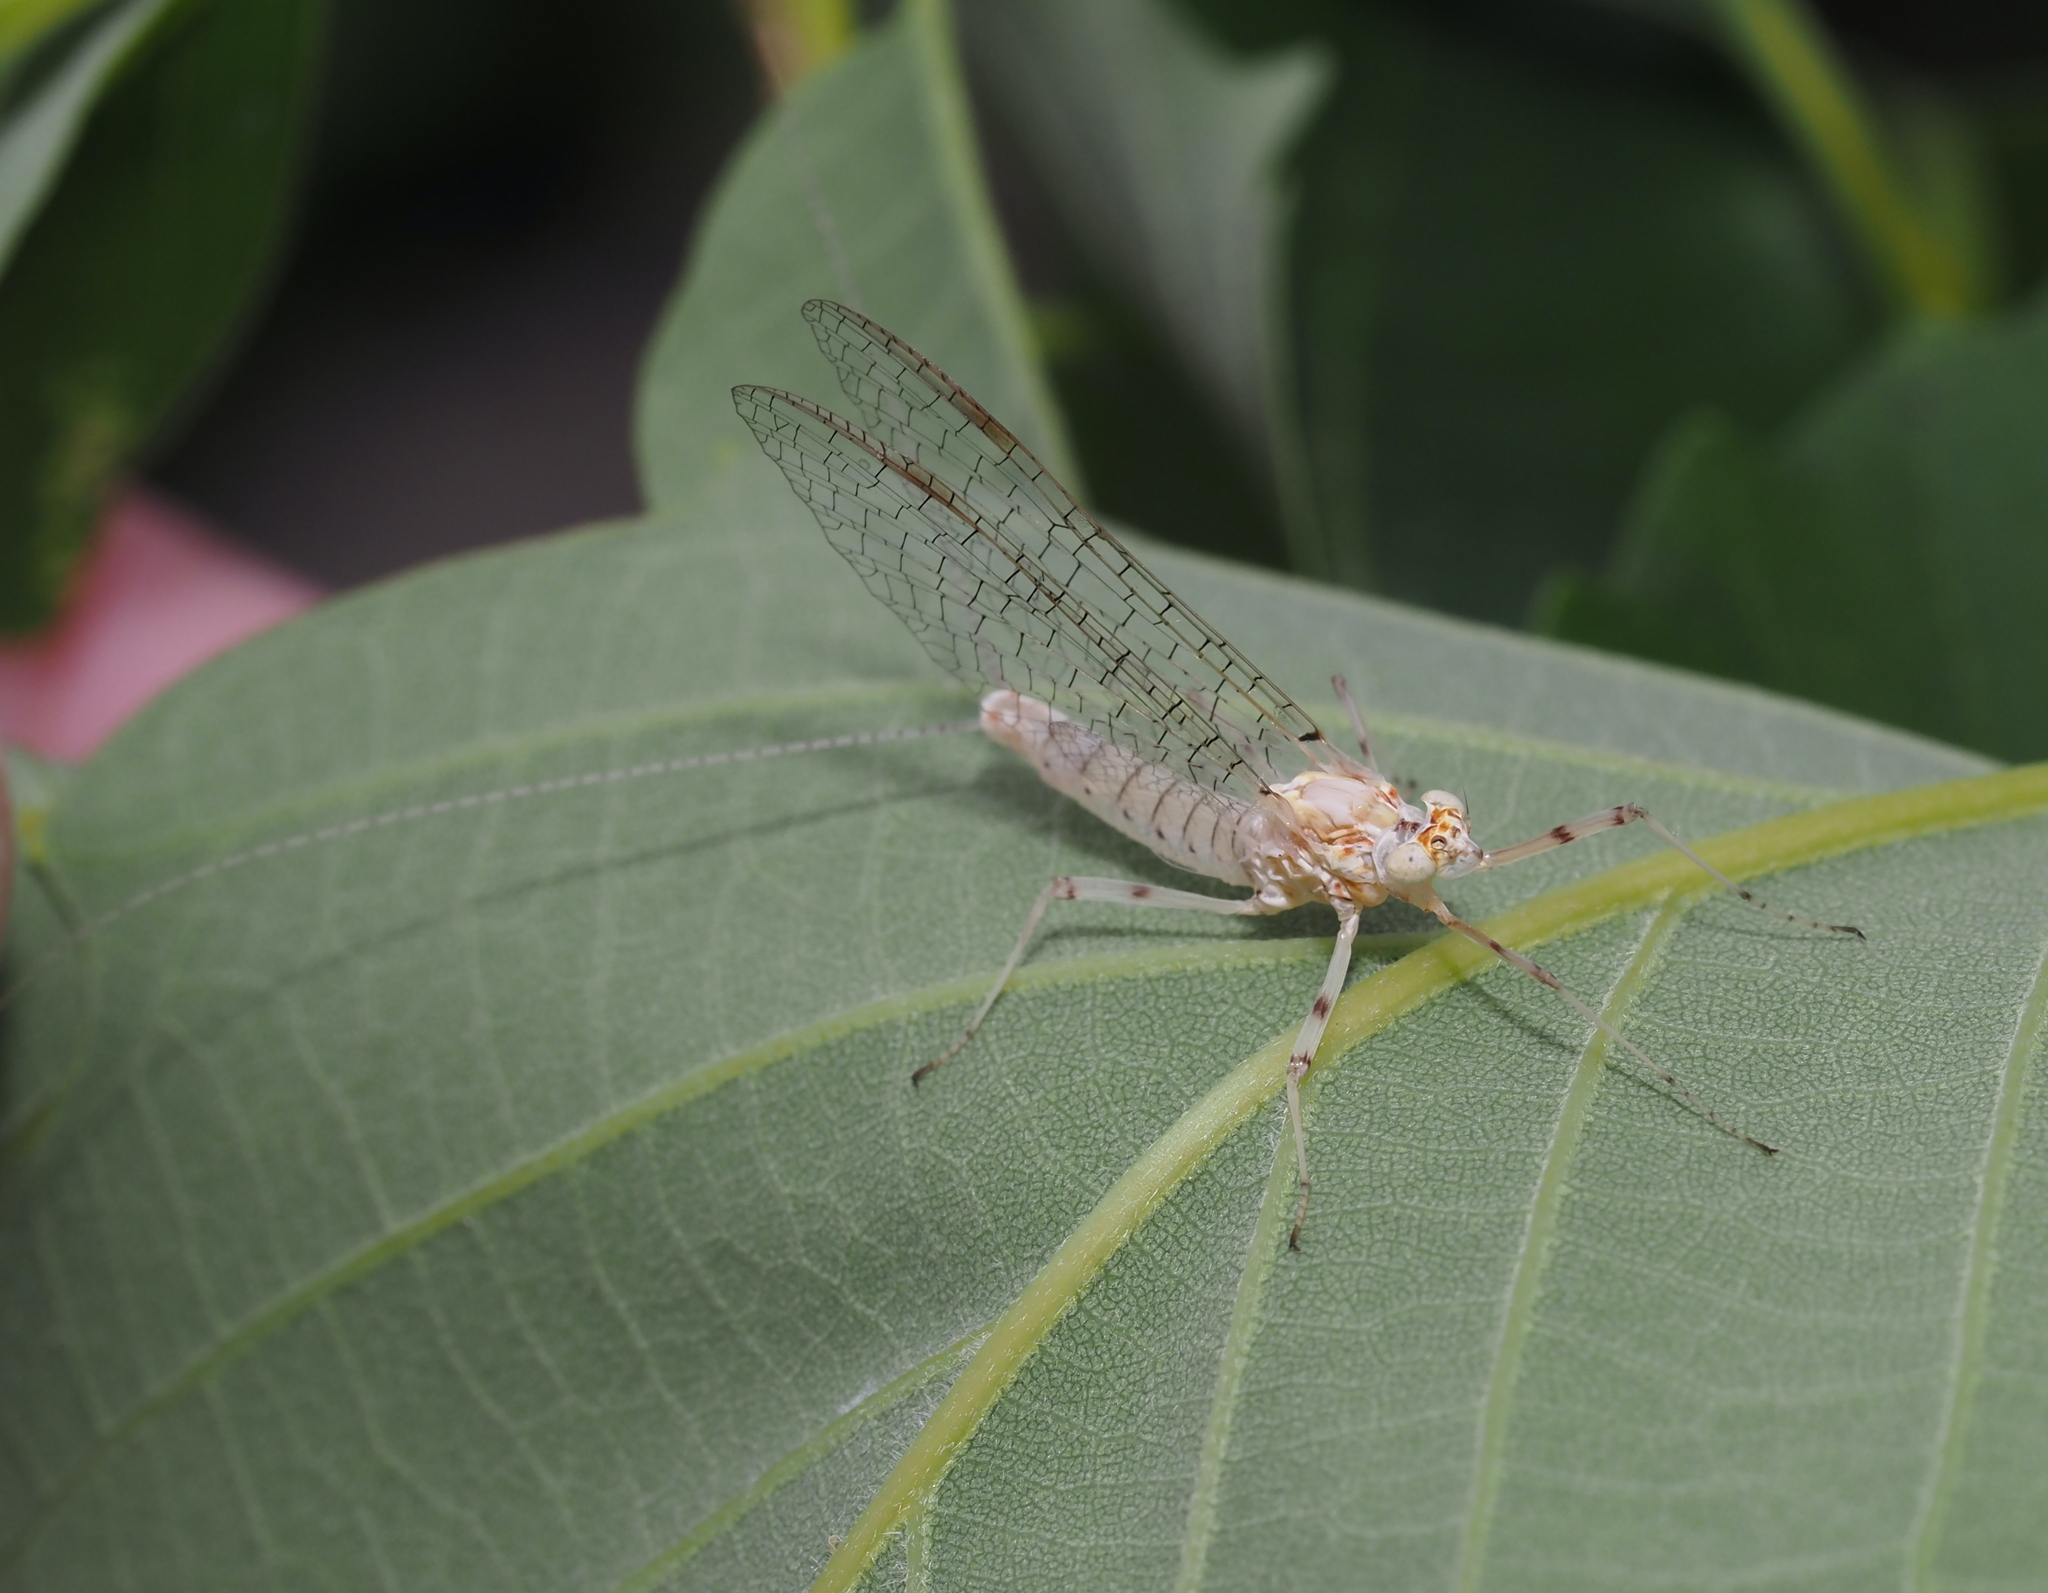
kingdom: Animalia
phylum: Arthropoda
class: Insecta
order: Ephemeroptera
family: Heptageniidae
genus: Maccaffertium
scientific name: Maccaffertium modestum
